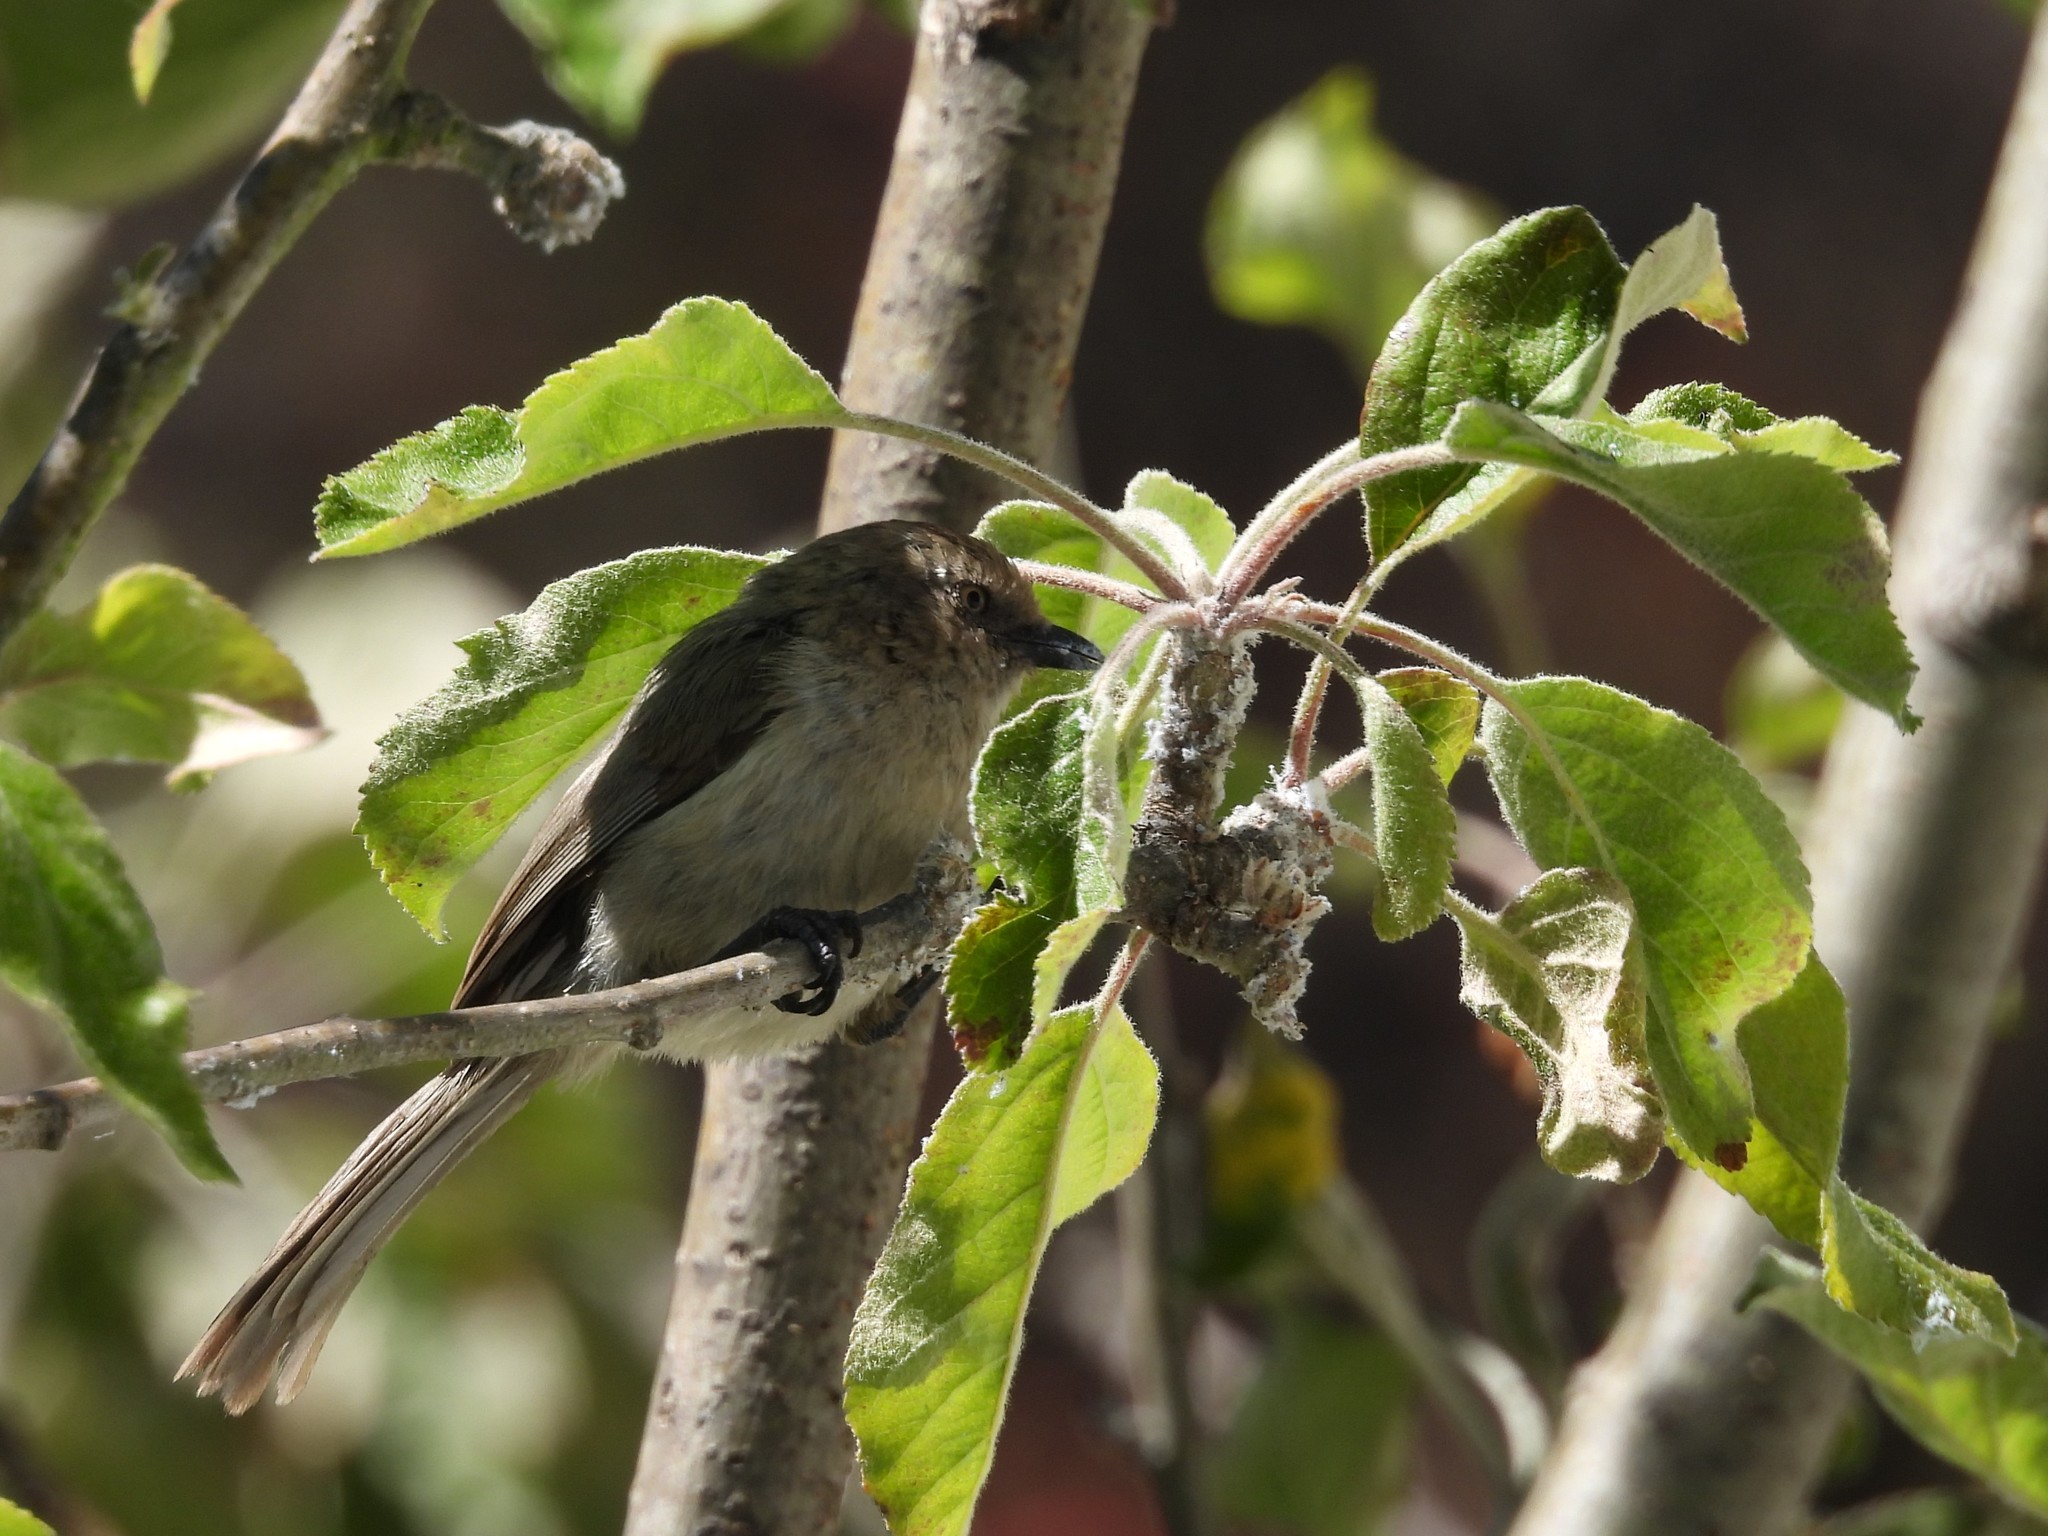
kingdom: Animalia
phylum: Chordata
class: Aves
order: Passeriformes
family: Aegithalidae
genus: Psaltriparus
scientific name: Psaltriparus minimus
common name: American bushtit
